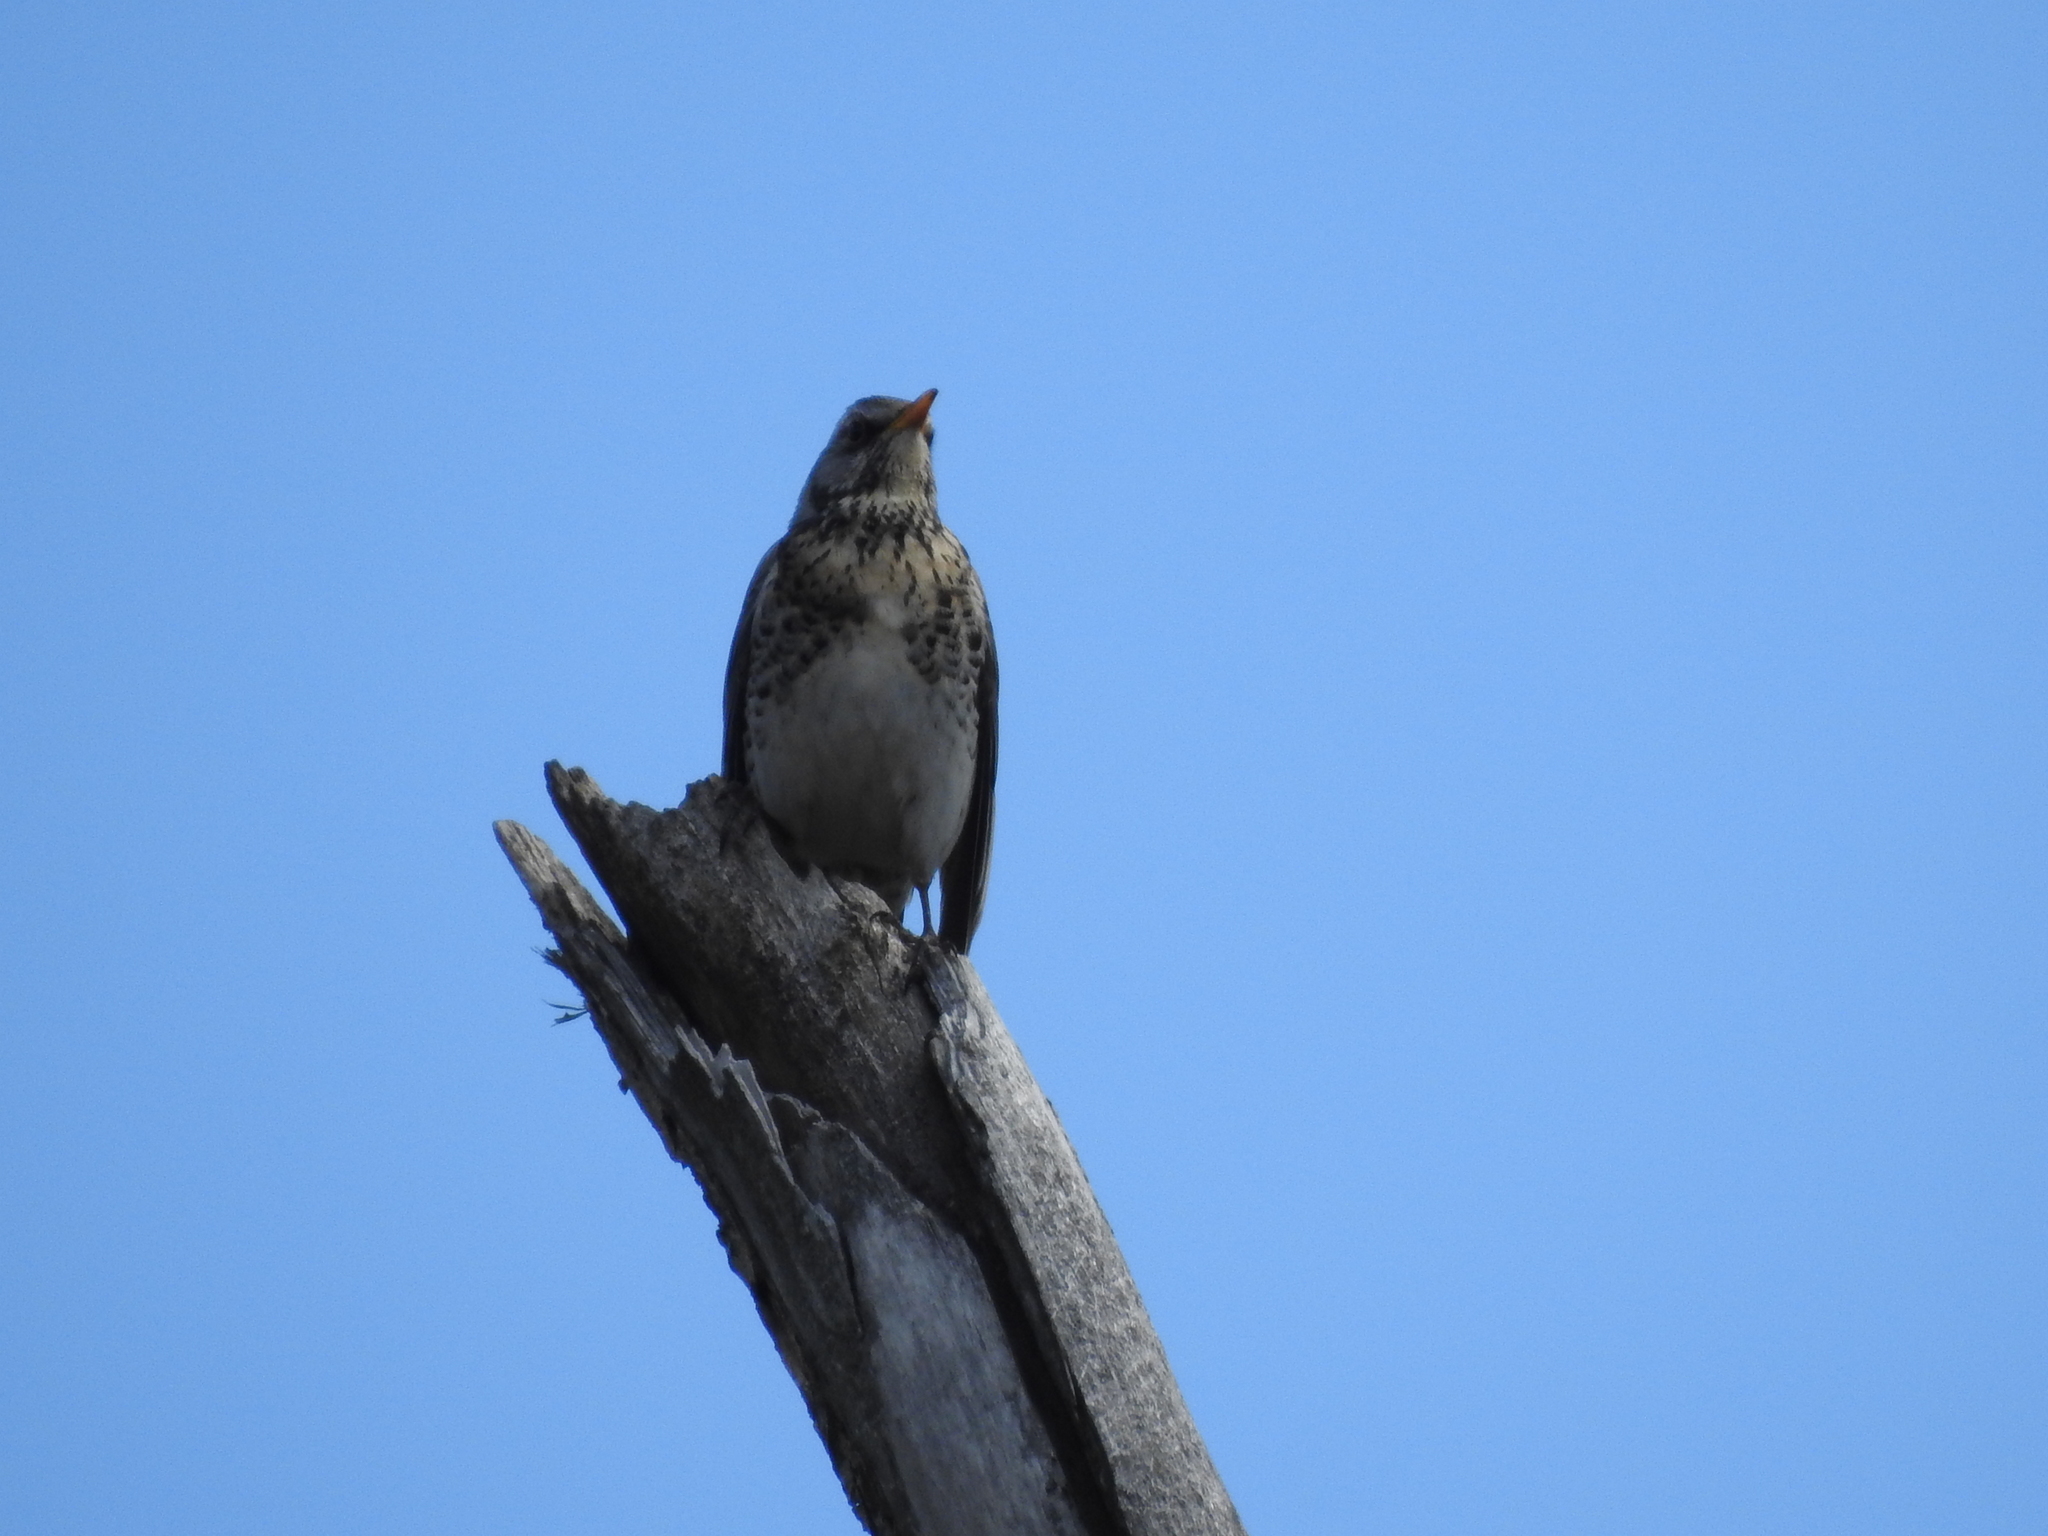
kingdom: Animalia
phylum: Chordata
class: Aves
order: Passeriformes
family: Turdidae
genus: Turdus
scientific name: Turdus pilaris
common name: Fieldfare
